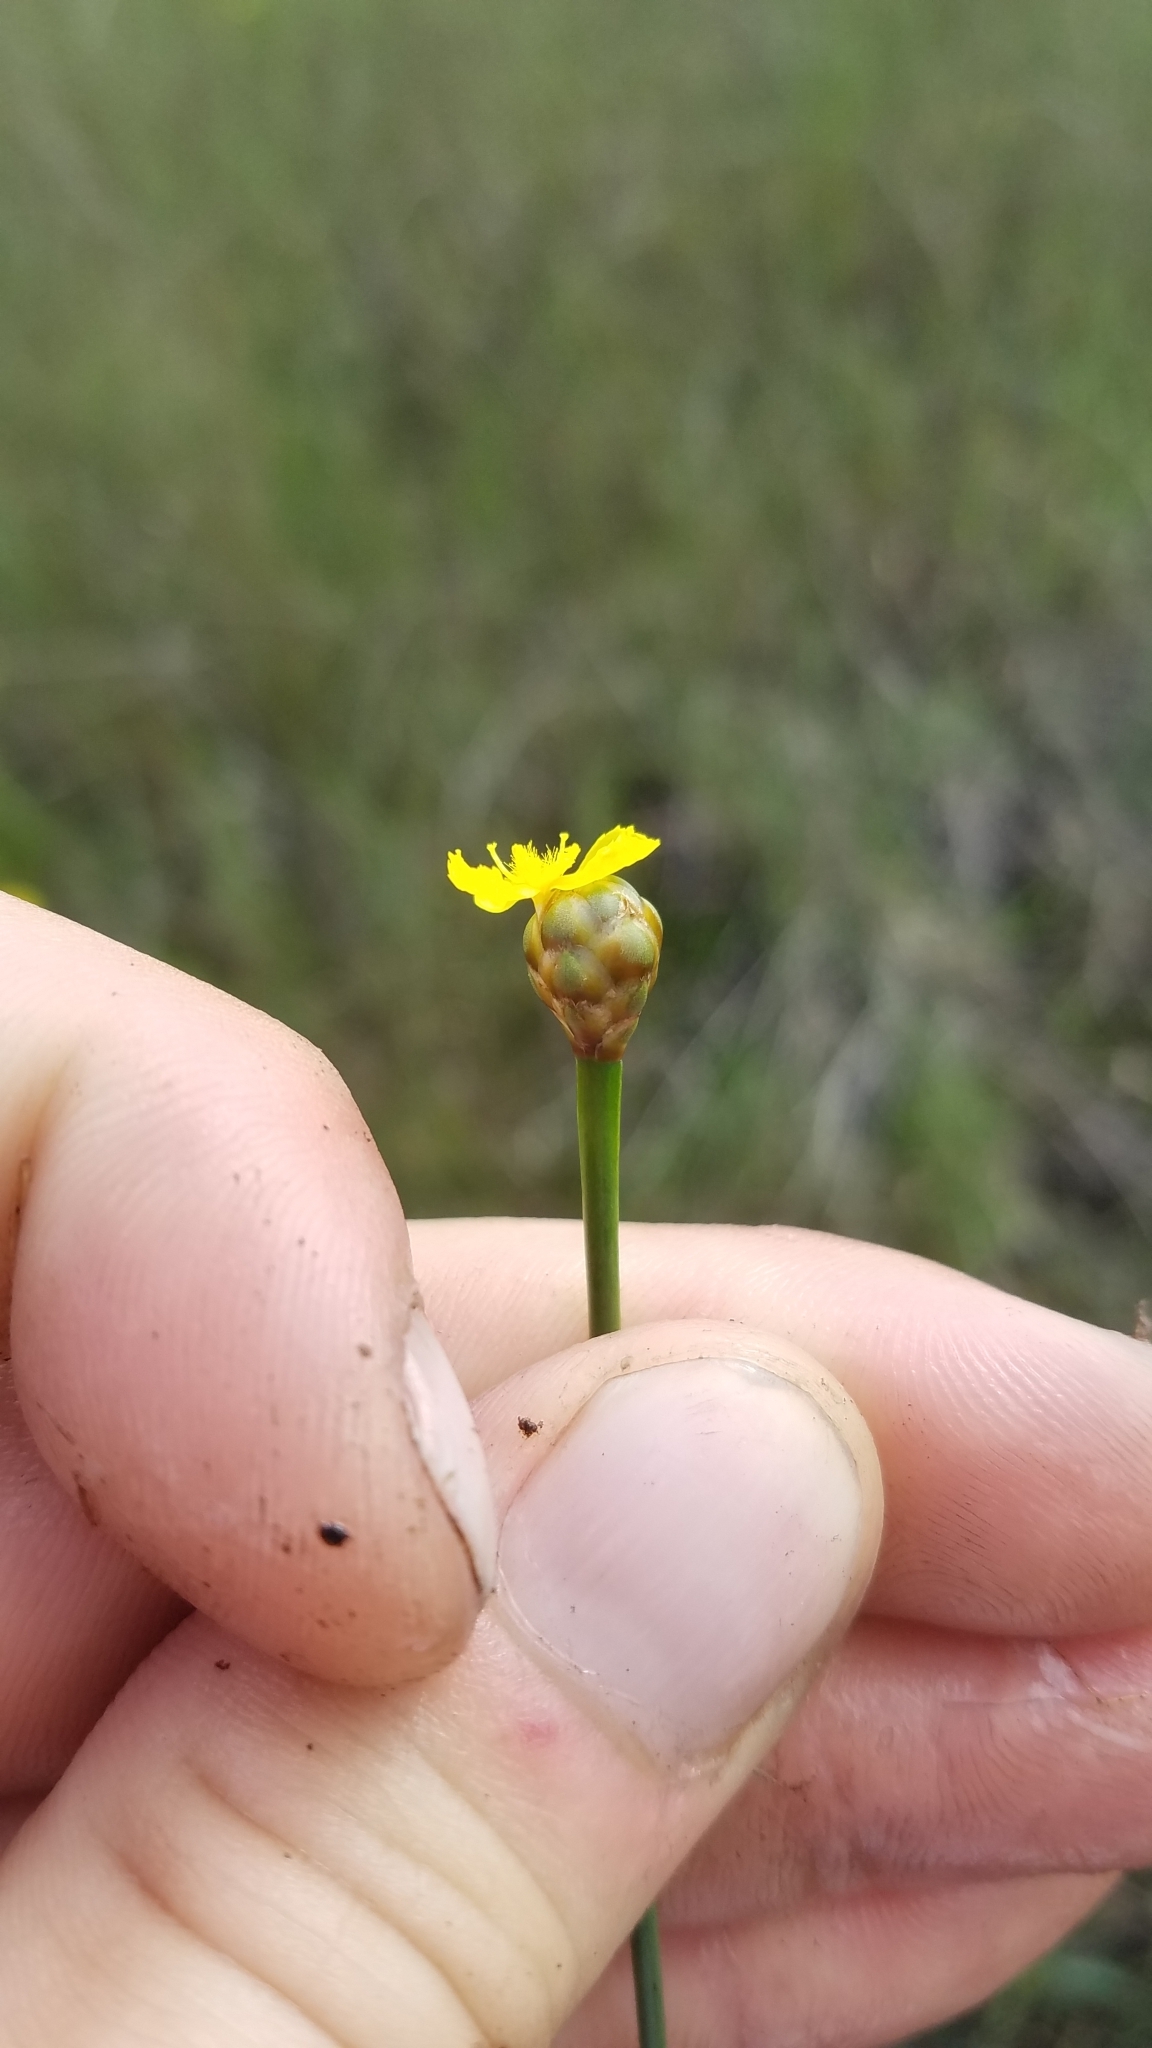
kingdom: Plantae
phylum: Tracheophyta
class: Liliopsida
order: Poales
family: Xyridaceae
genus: Xyris
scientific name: Xyris smalliana
